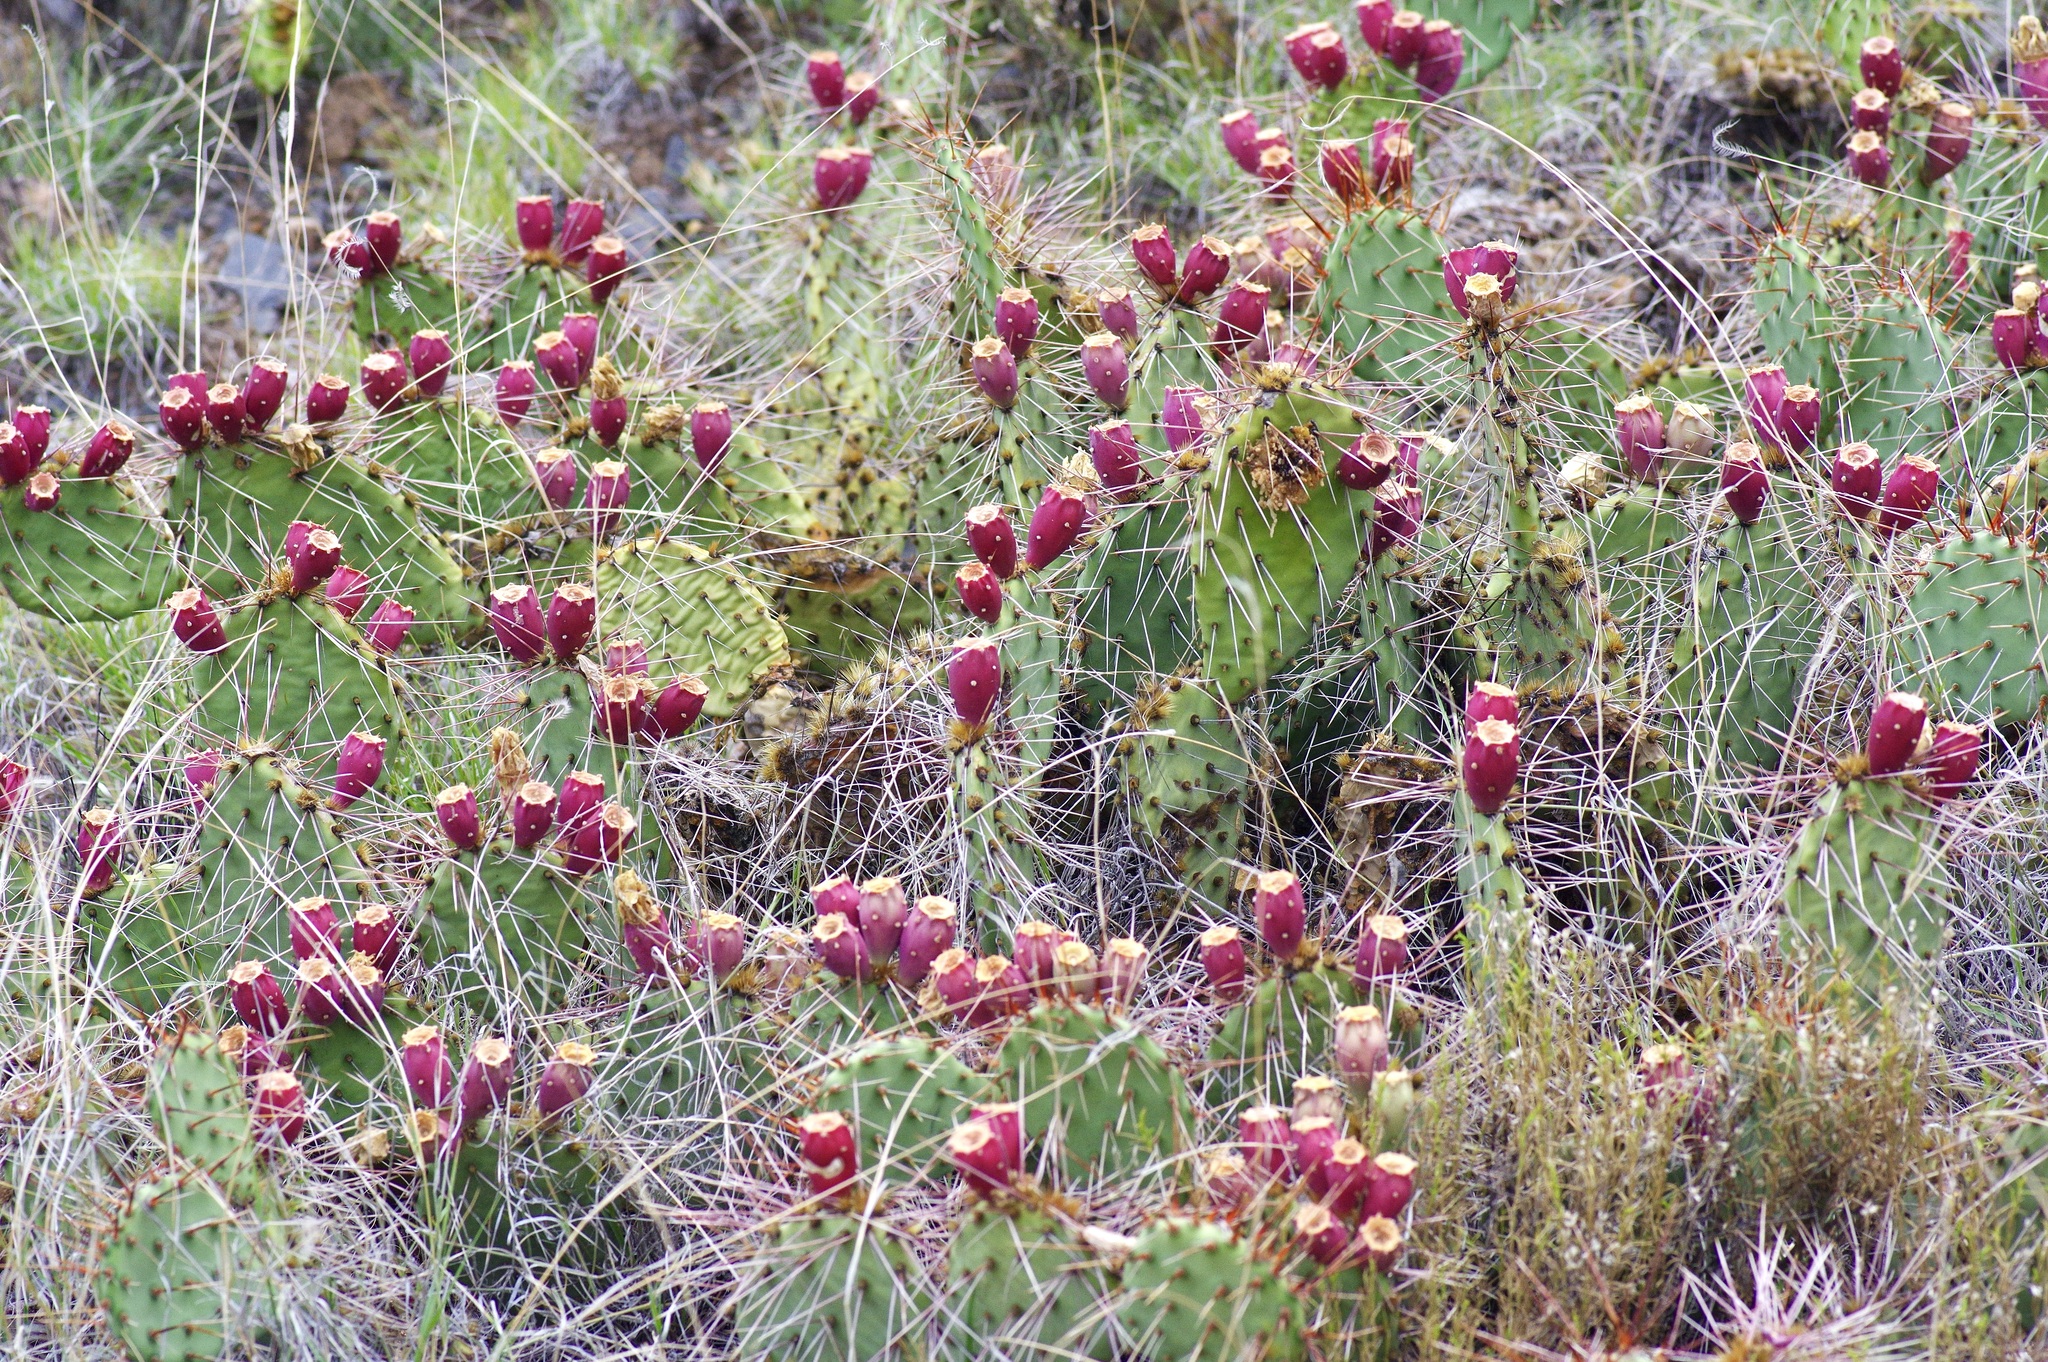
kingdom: Plantae
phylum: Tracheophyta
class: Magnoliopsida
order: Caryophyllales
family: Cactaceae
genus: Opuntia
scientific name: Opuntia macrorhiza
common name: Grassland pricklypear
